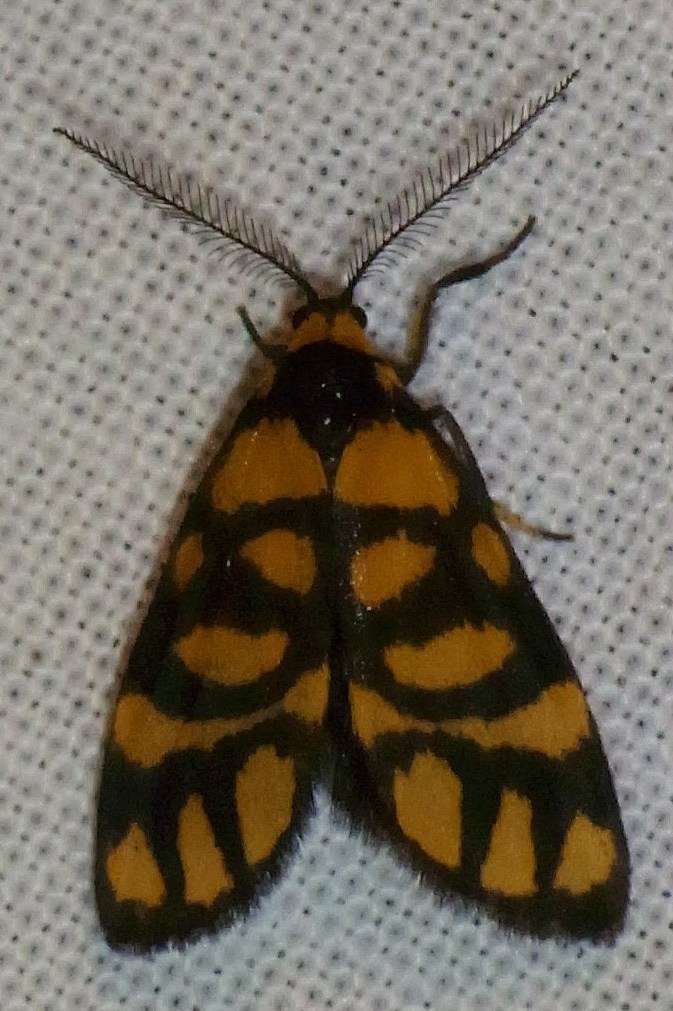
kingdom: Animalia
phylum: Arthropoda
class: Insecta
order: Lepidoptera
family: Erebidae
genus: Asura
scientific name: Asura lydia
